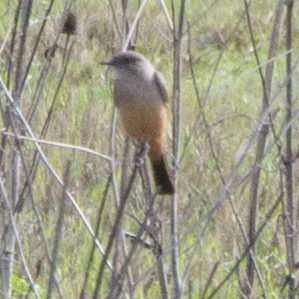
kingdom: Animalia
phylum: Chordata
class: Aves
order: Passeriformes
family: Tyrannidae
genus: Sayornis
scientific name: Sayornis saya
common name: Say's phoebe
